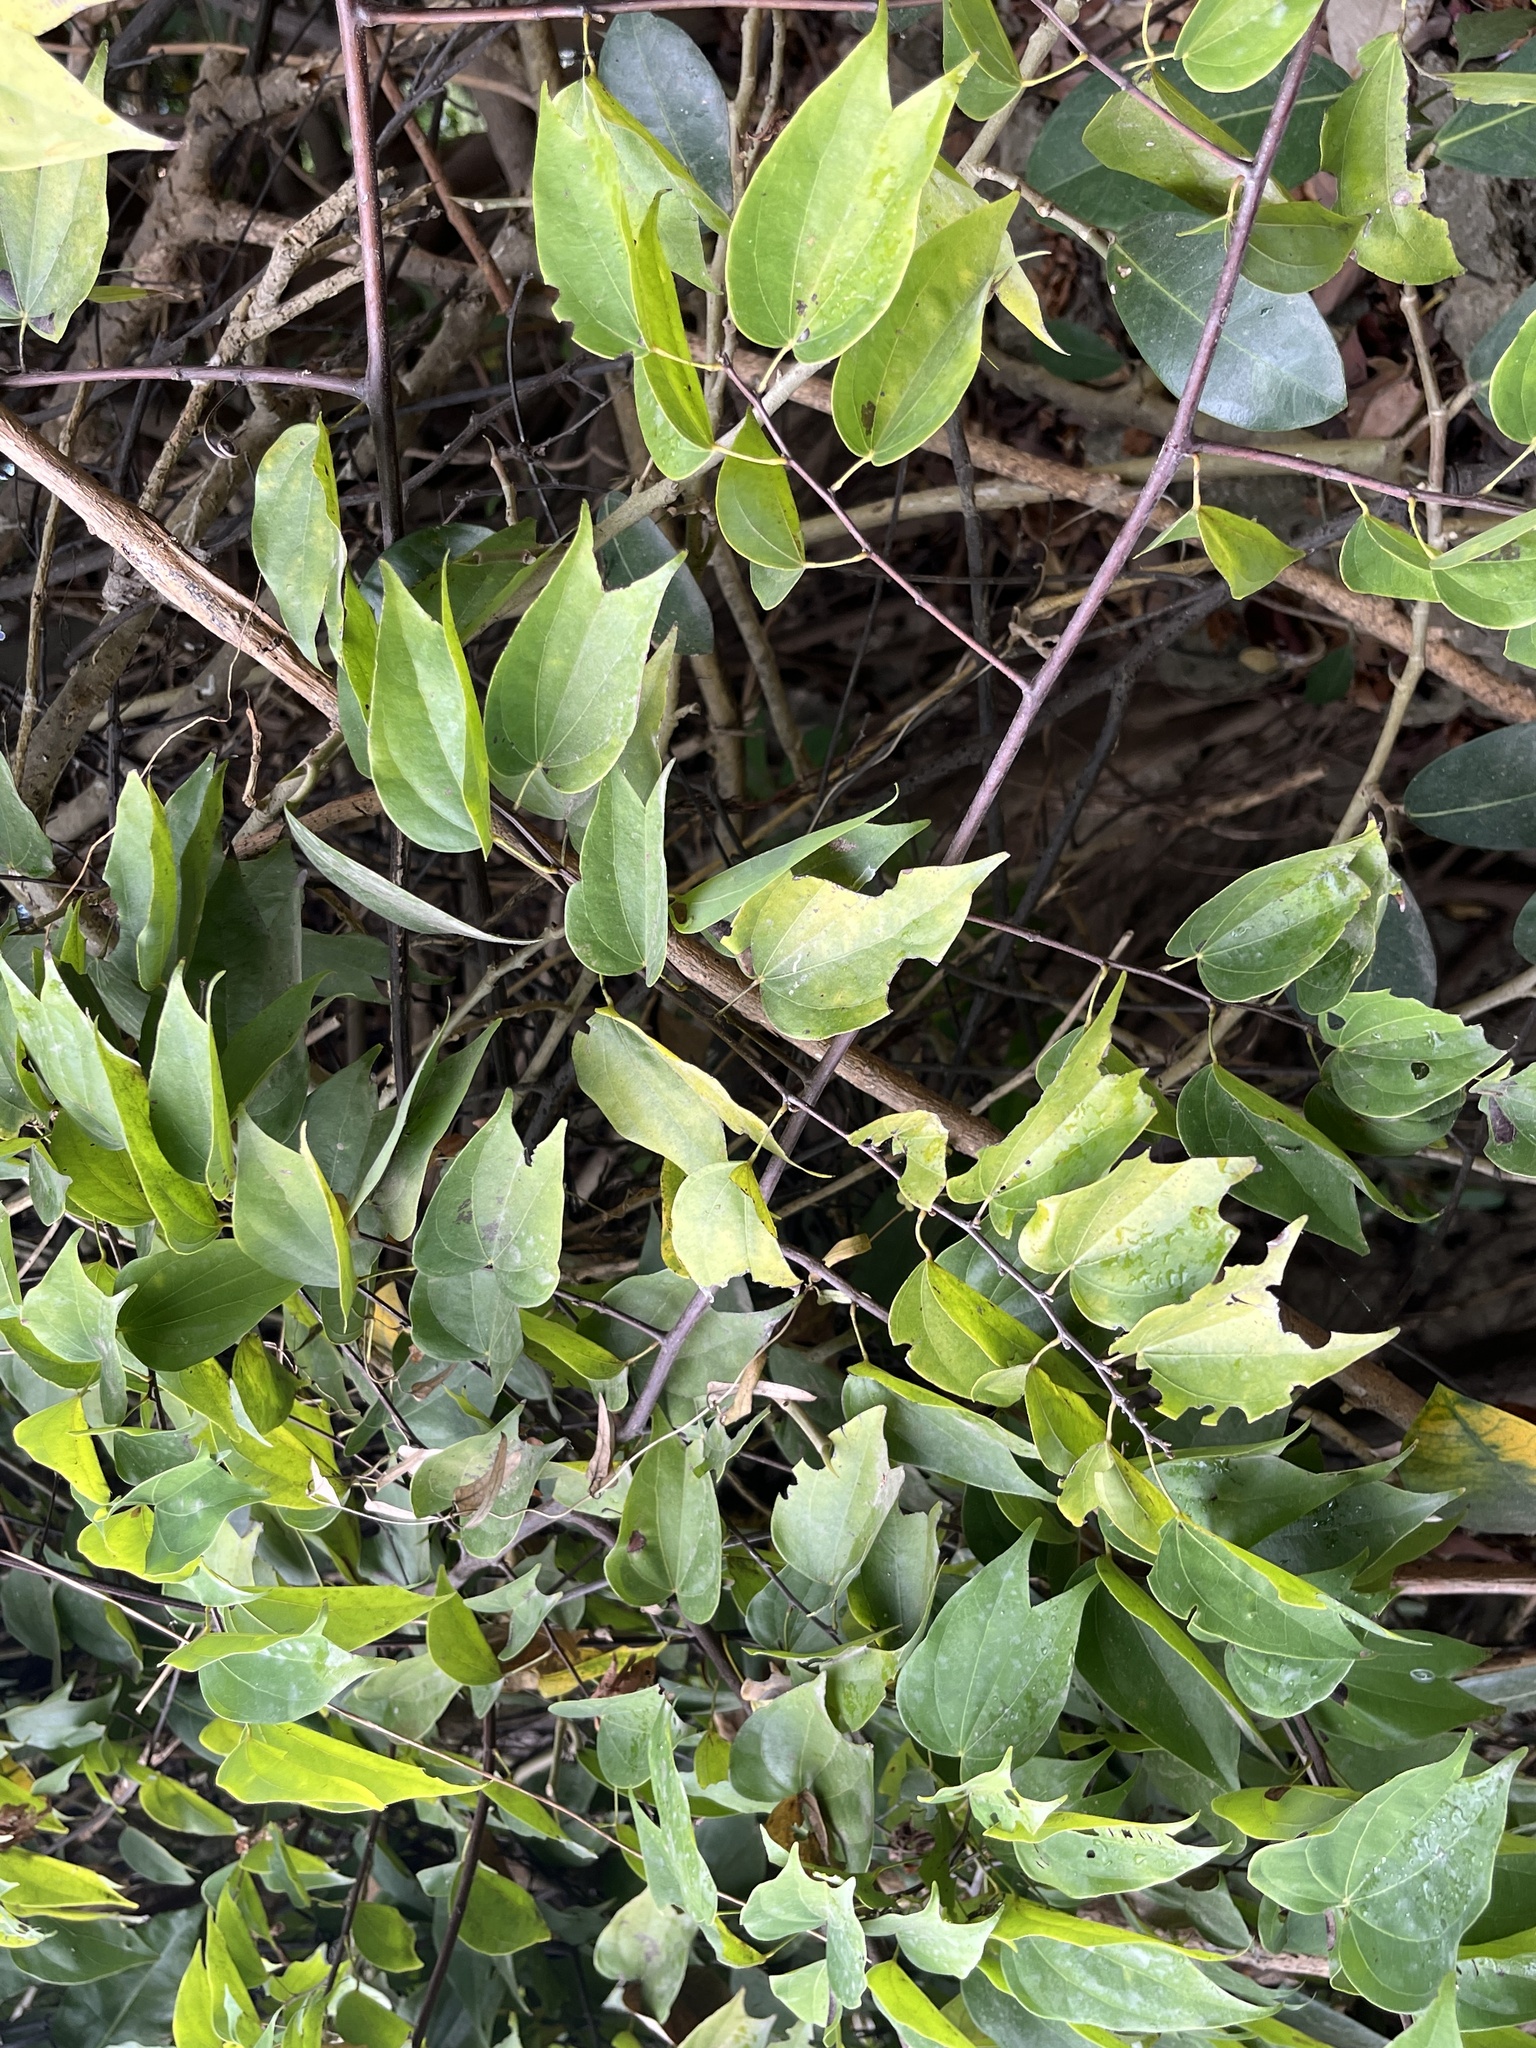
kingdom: Plantae
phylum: Tracheophyta
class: Magnoliopsida
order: Fabales
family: Fabaceae
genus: Phanera
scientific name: Phanera championii
